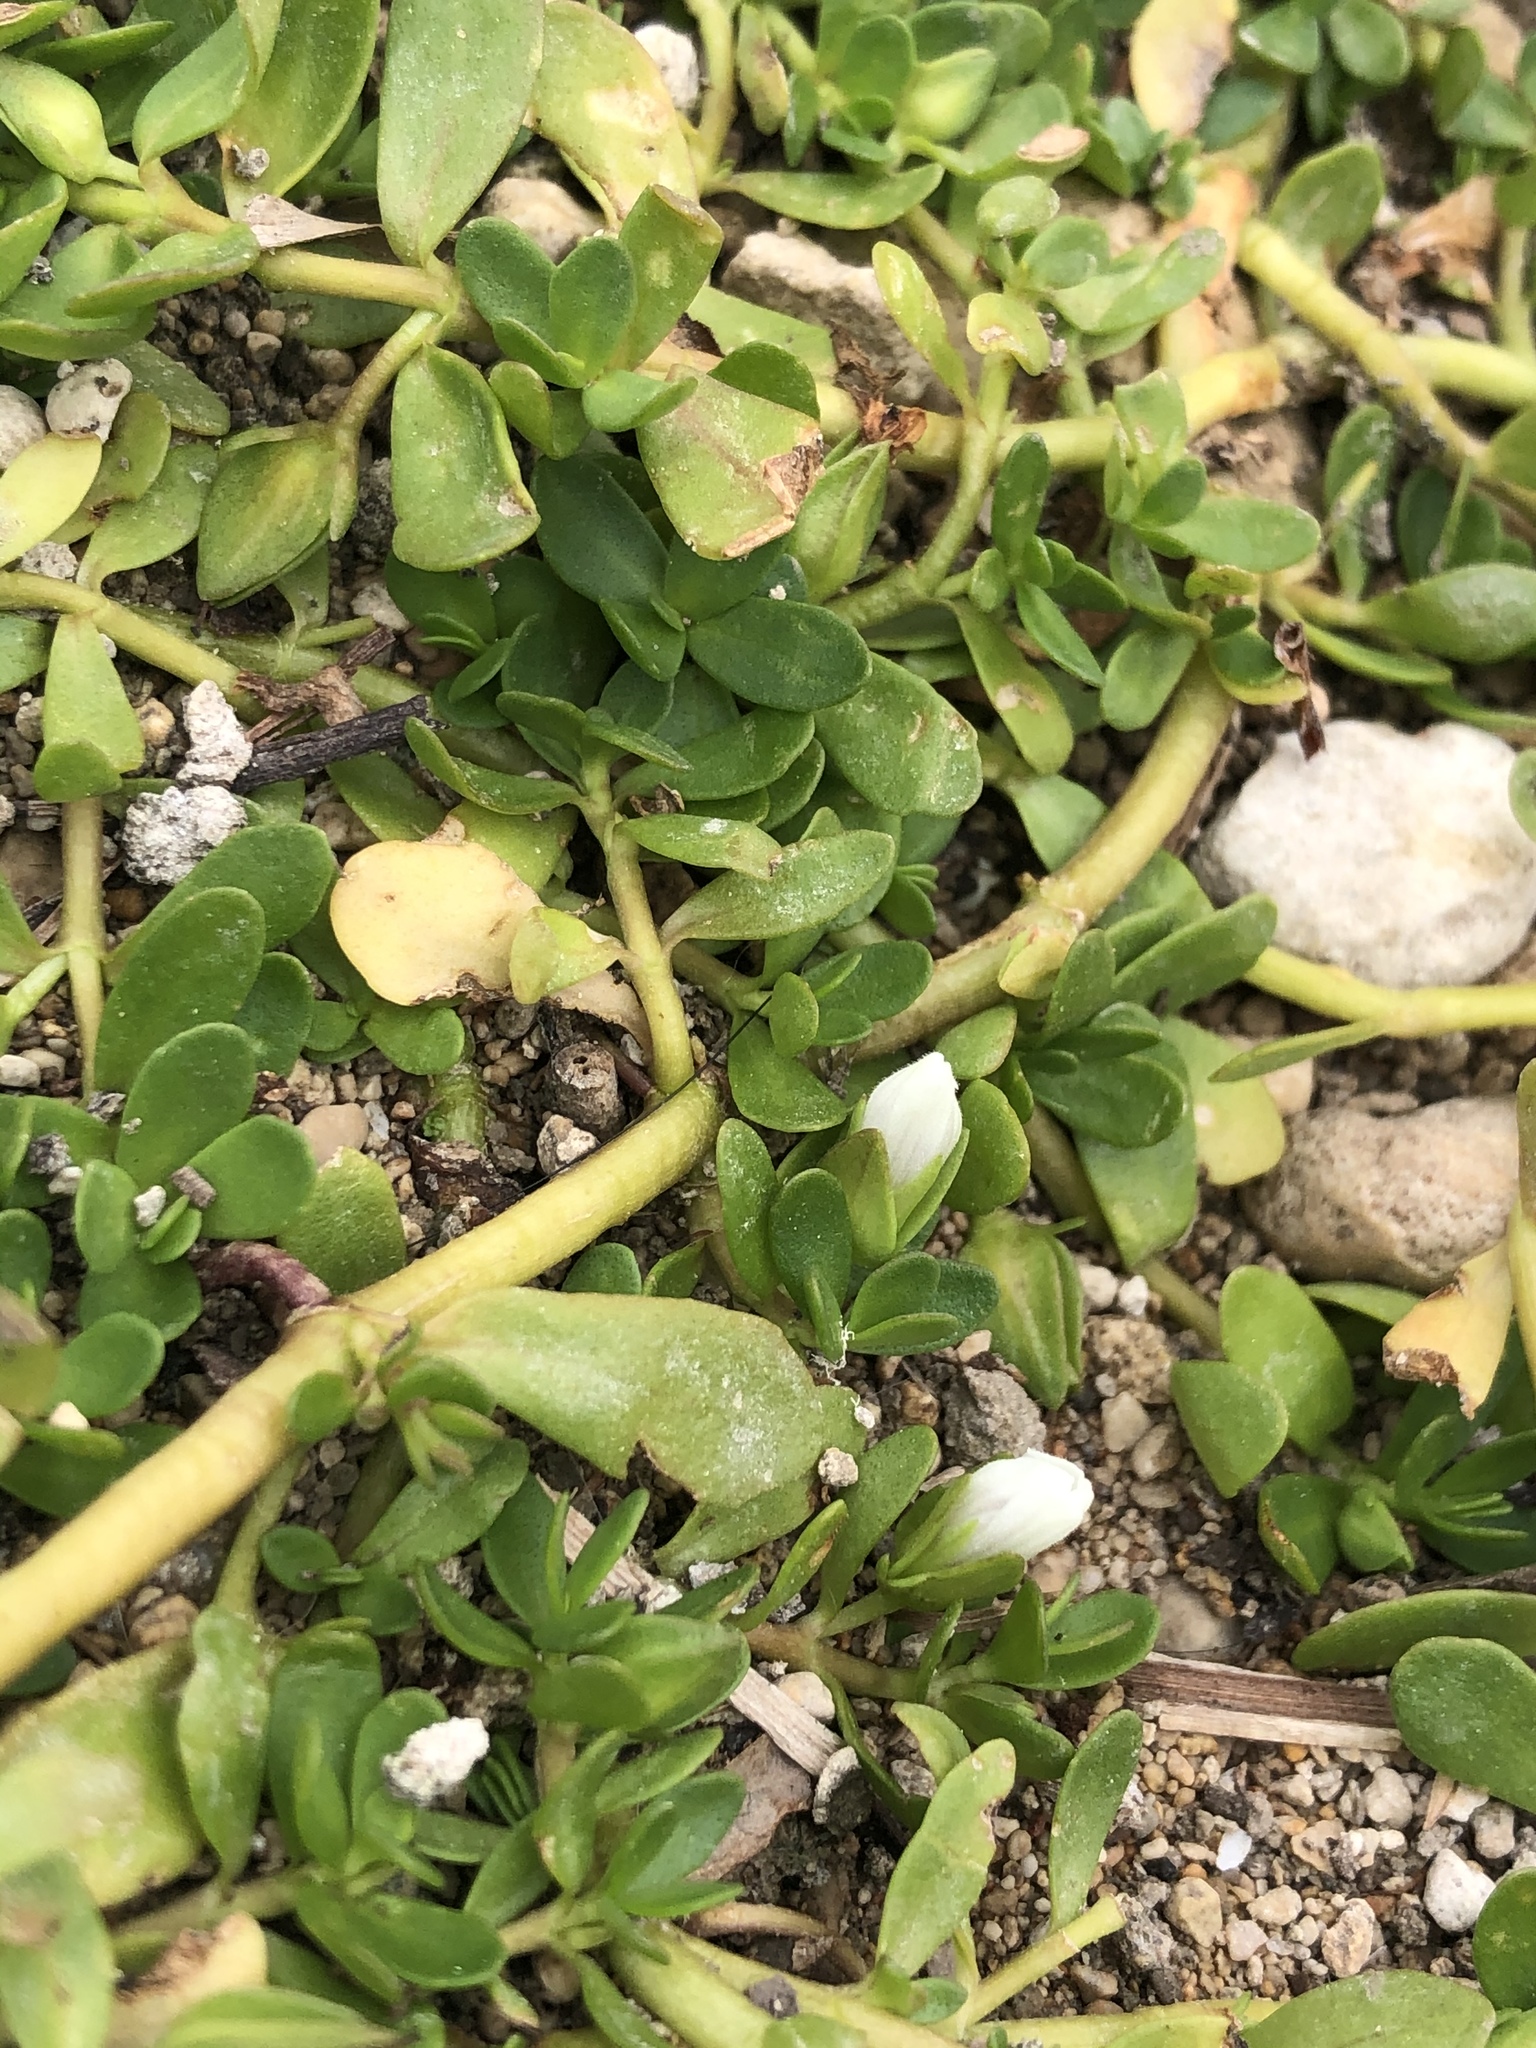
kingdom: Plantae
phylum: Tracheophyta
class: Magnoliopsida
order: Lamiales
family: Plantaginaceae
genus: Bacopa
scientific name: Bacopa monnieri
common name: Indian-pennywort
